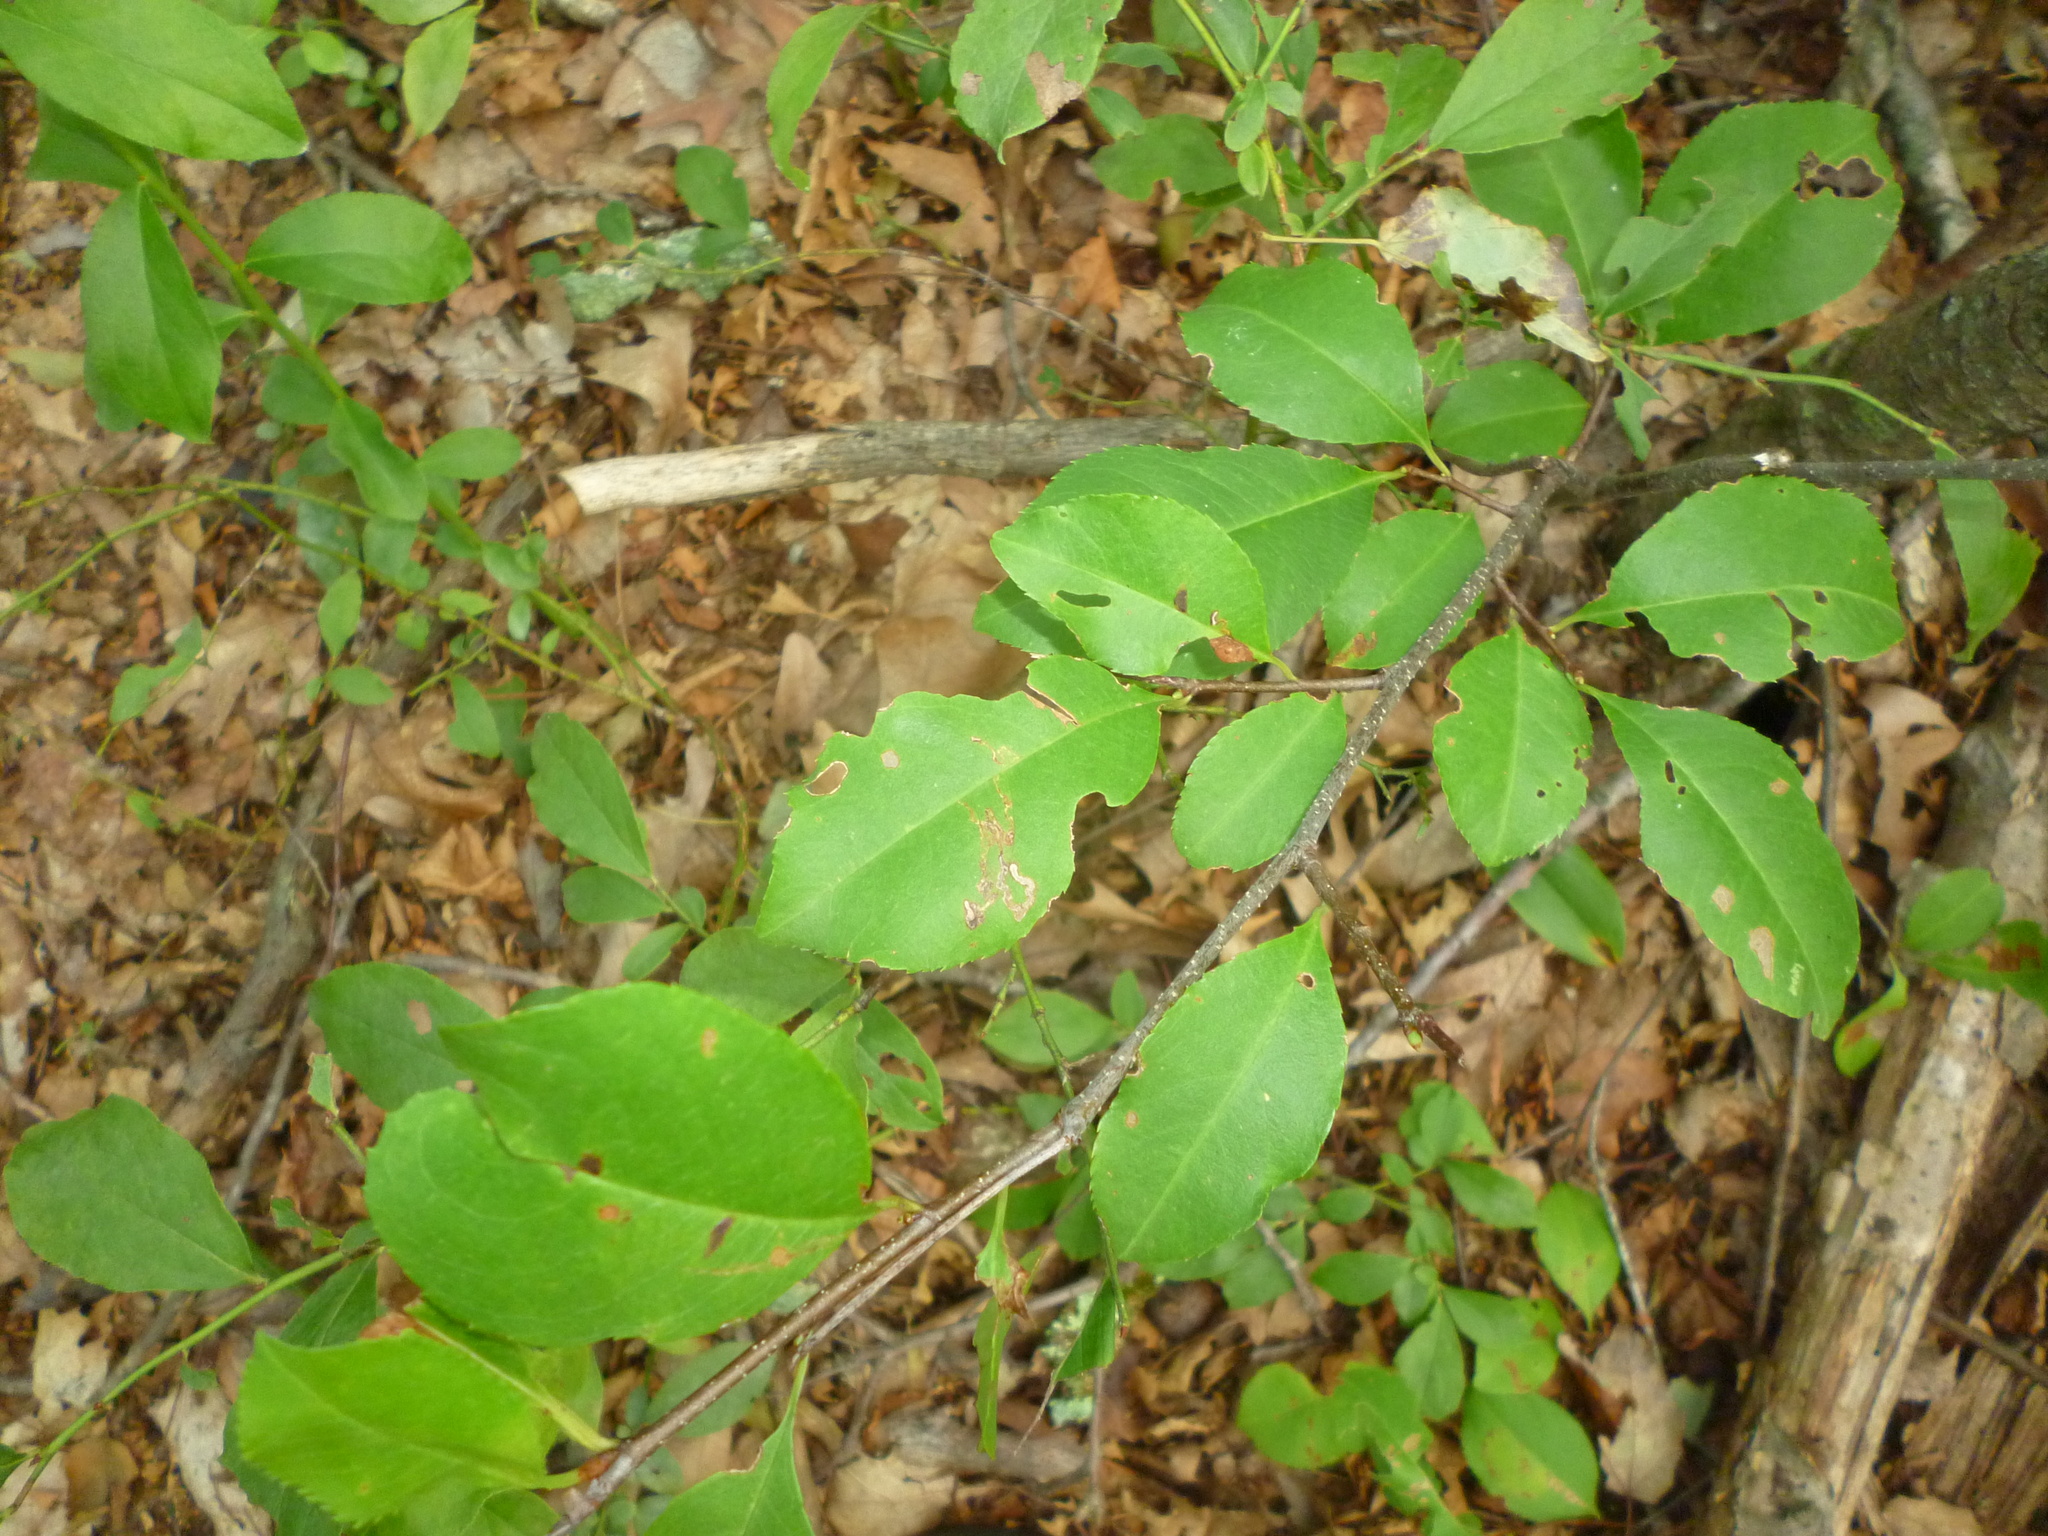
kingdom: Plantae
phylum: Tracheophyta
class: Magnoliopsida
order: Rosales
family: Rosaceae
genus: Prunus
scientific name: Prunus serotina
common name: Black cherry
